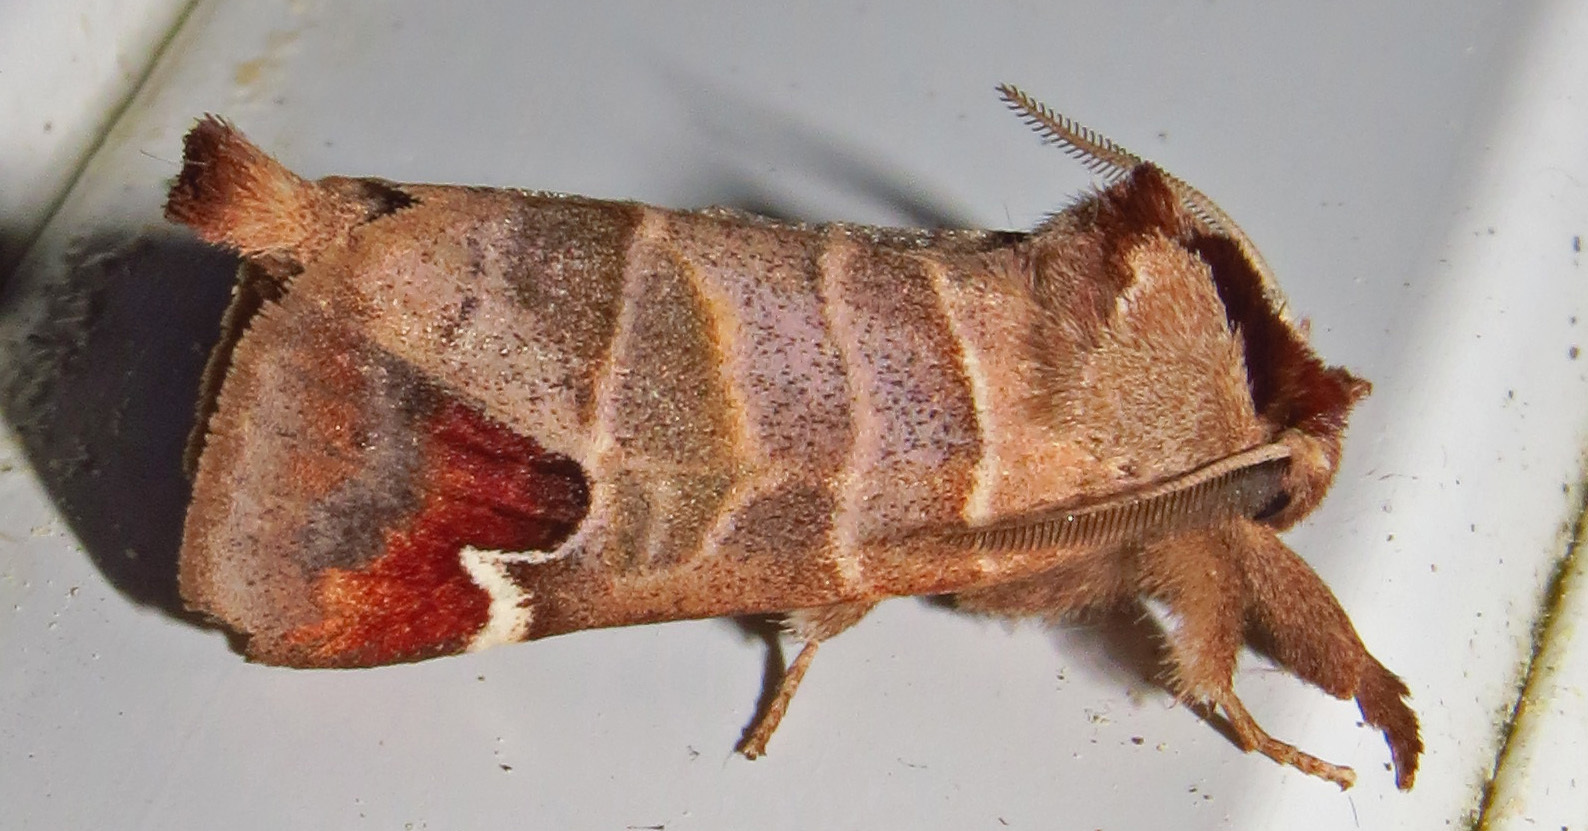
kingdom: Animalia
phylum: Arthropoda
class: Insecta
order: Lepidoptera
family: Notodontidae
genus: Clostera
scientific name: Clostera albosigma
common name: Sigmoid prominent
